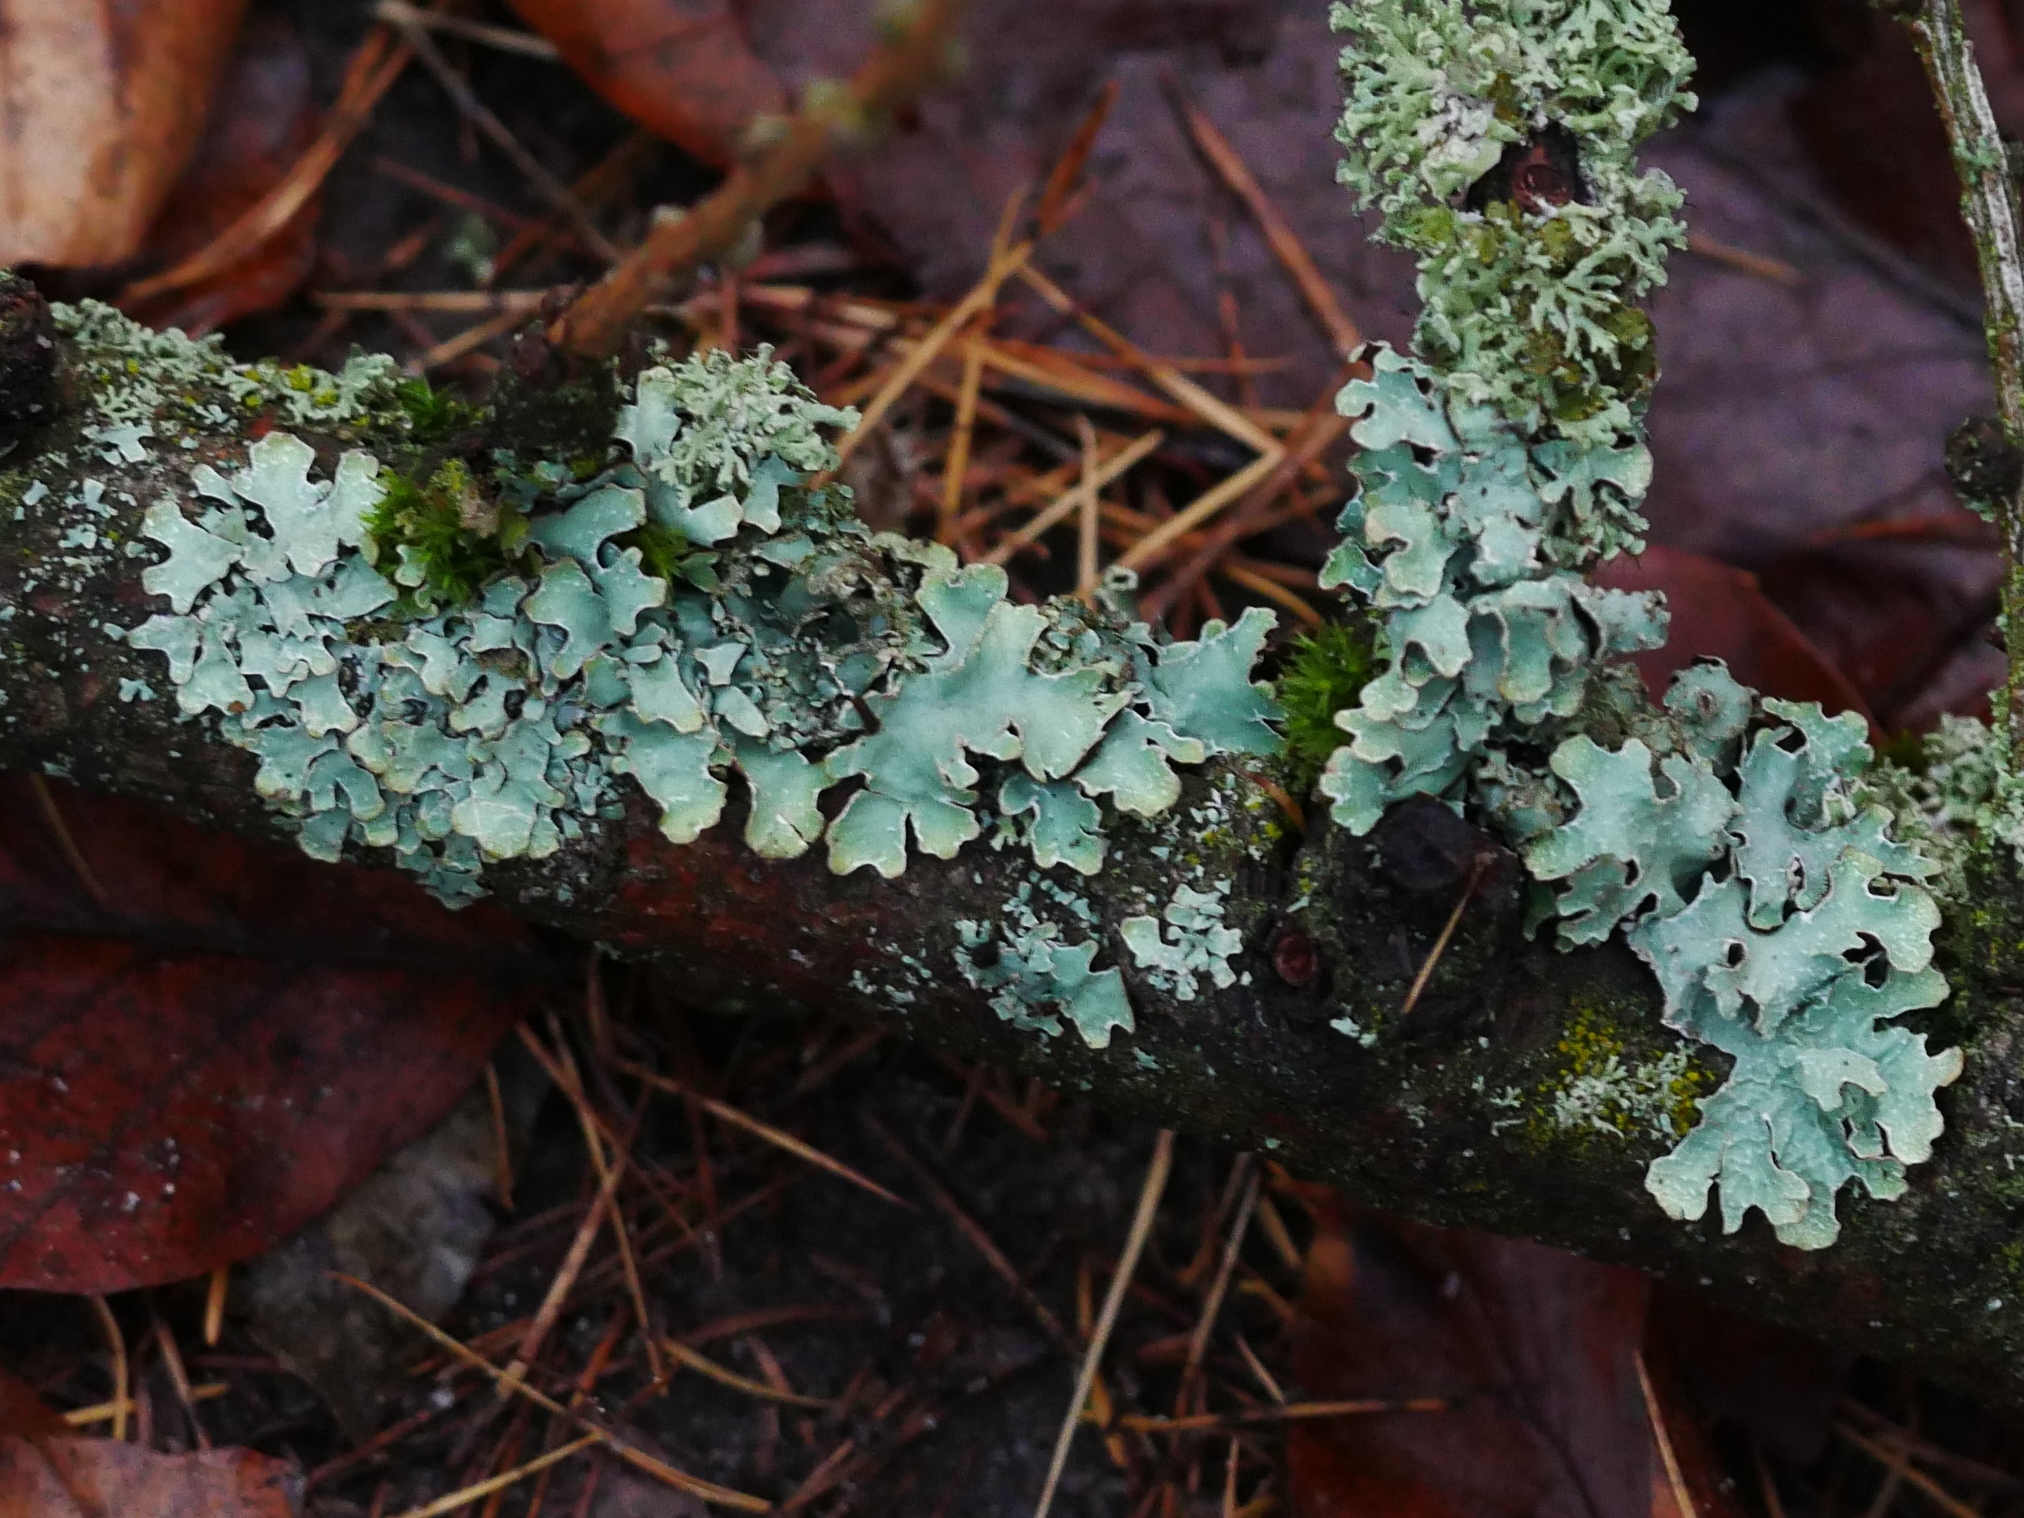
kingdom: Fungi
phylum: Ascomycota
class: Lecanoromycetes
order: Lecanorales
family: Parmeliaceae
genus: Parmelia
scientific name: Parmelia sulcata
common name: Netted shield lichen
